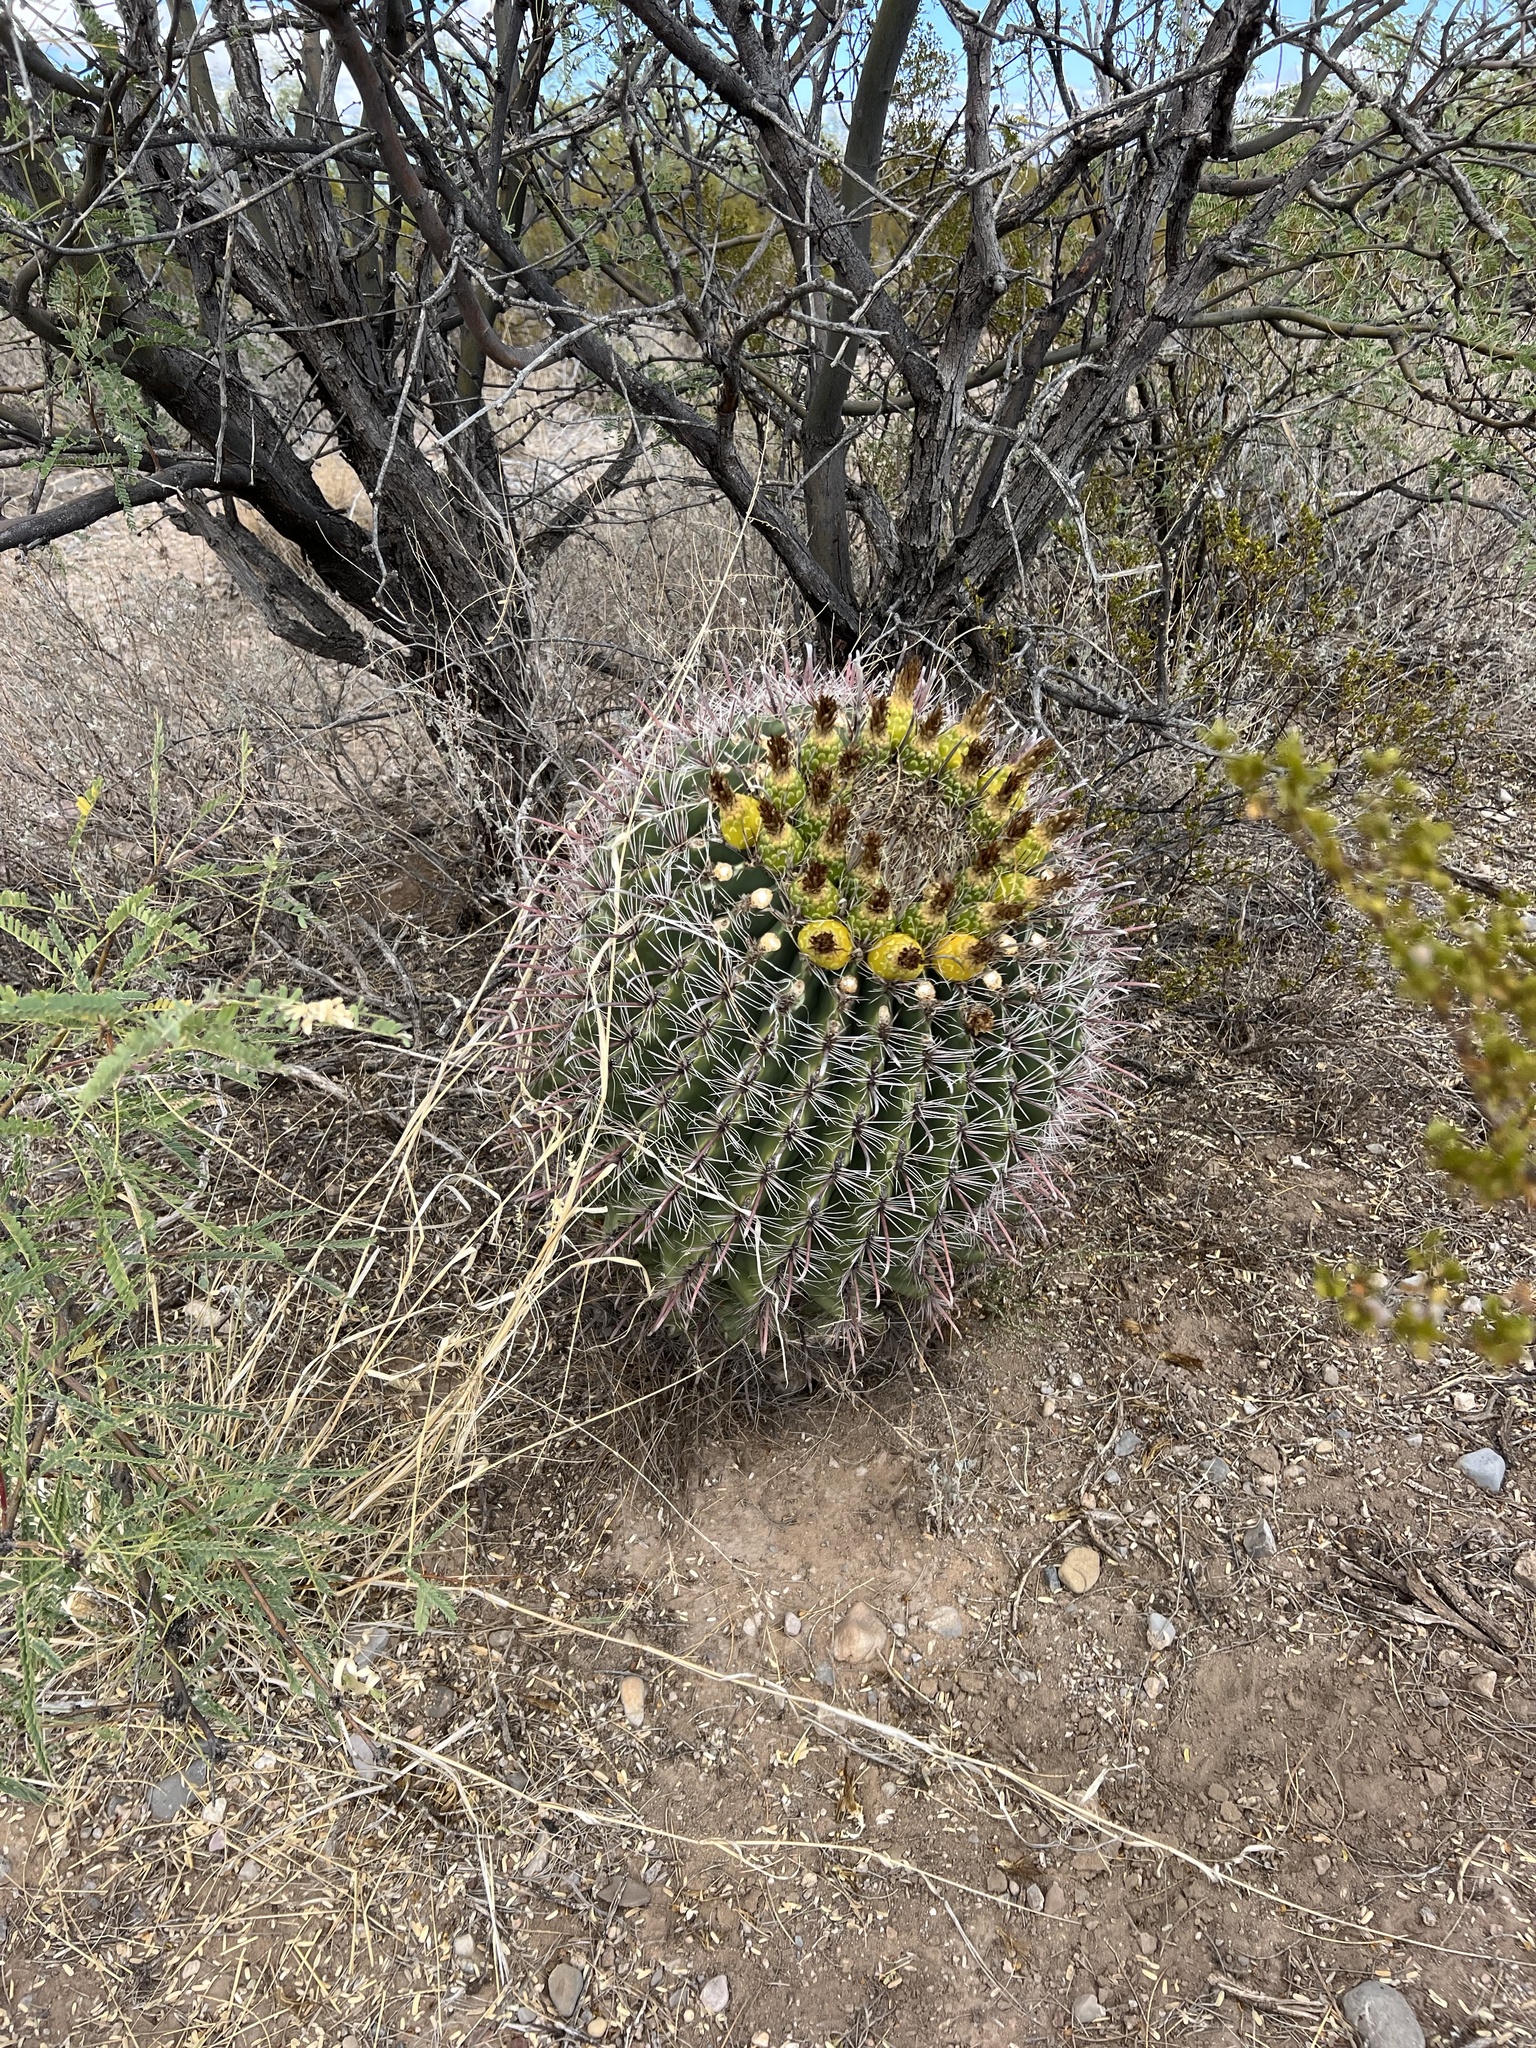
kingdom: Plantae
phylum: Tracheophyta
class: Magnoliopsida
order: Caryophyllales
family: Cactaceae
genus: Ferocactus
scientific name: Ferocactus wislizeni
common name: Candy barrel cactus
